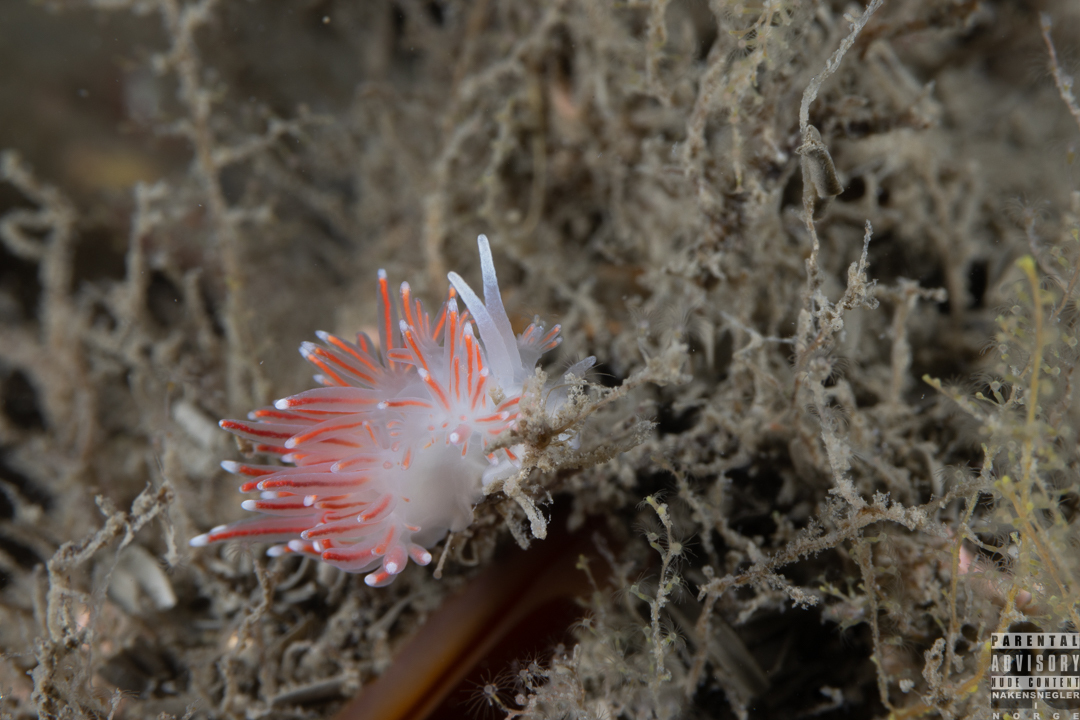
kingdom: Animalia
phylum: Mollusca
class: Gastropoda
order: Nudibranchia
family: Flabellinidae
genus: Carronella
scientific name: Carronella pellucida
